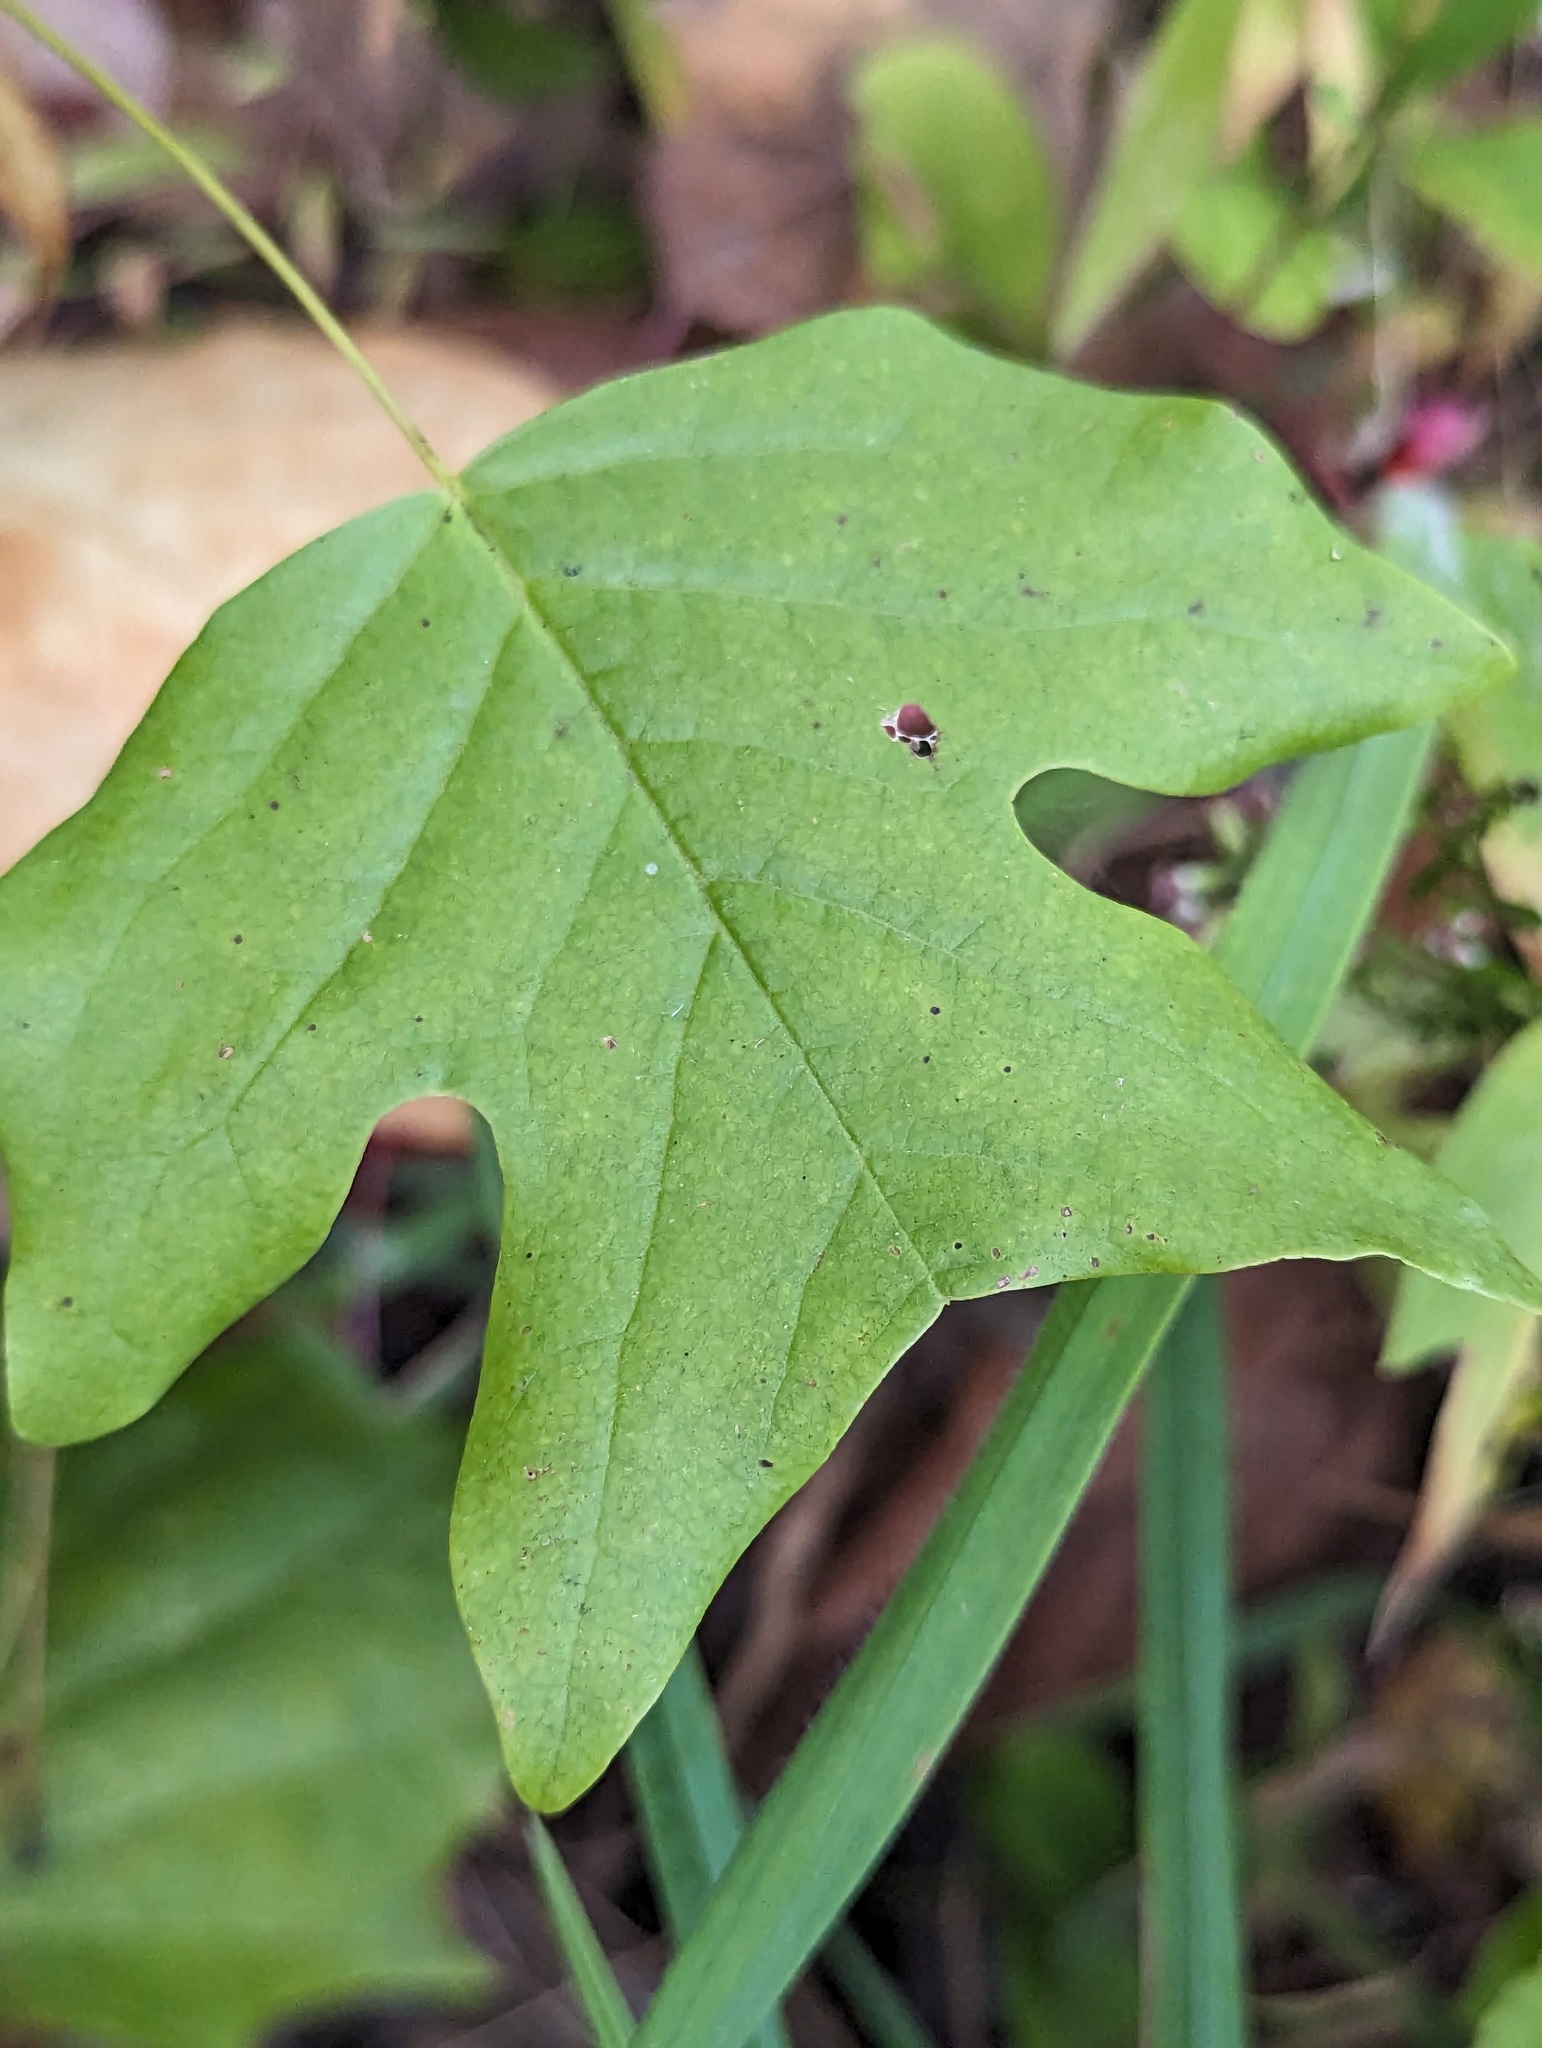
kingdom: Plantae
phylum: Tracheophyta
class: Magnoliopsida
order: Magnoliales
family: Magnoliaceae
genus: Liriodendron
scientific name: Liriodendron tulipifera
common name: Tulip tree
